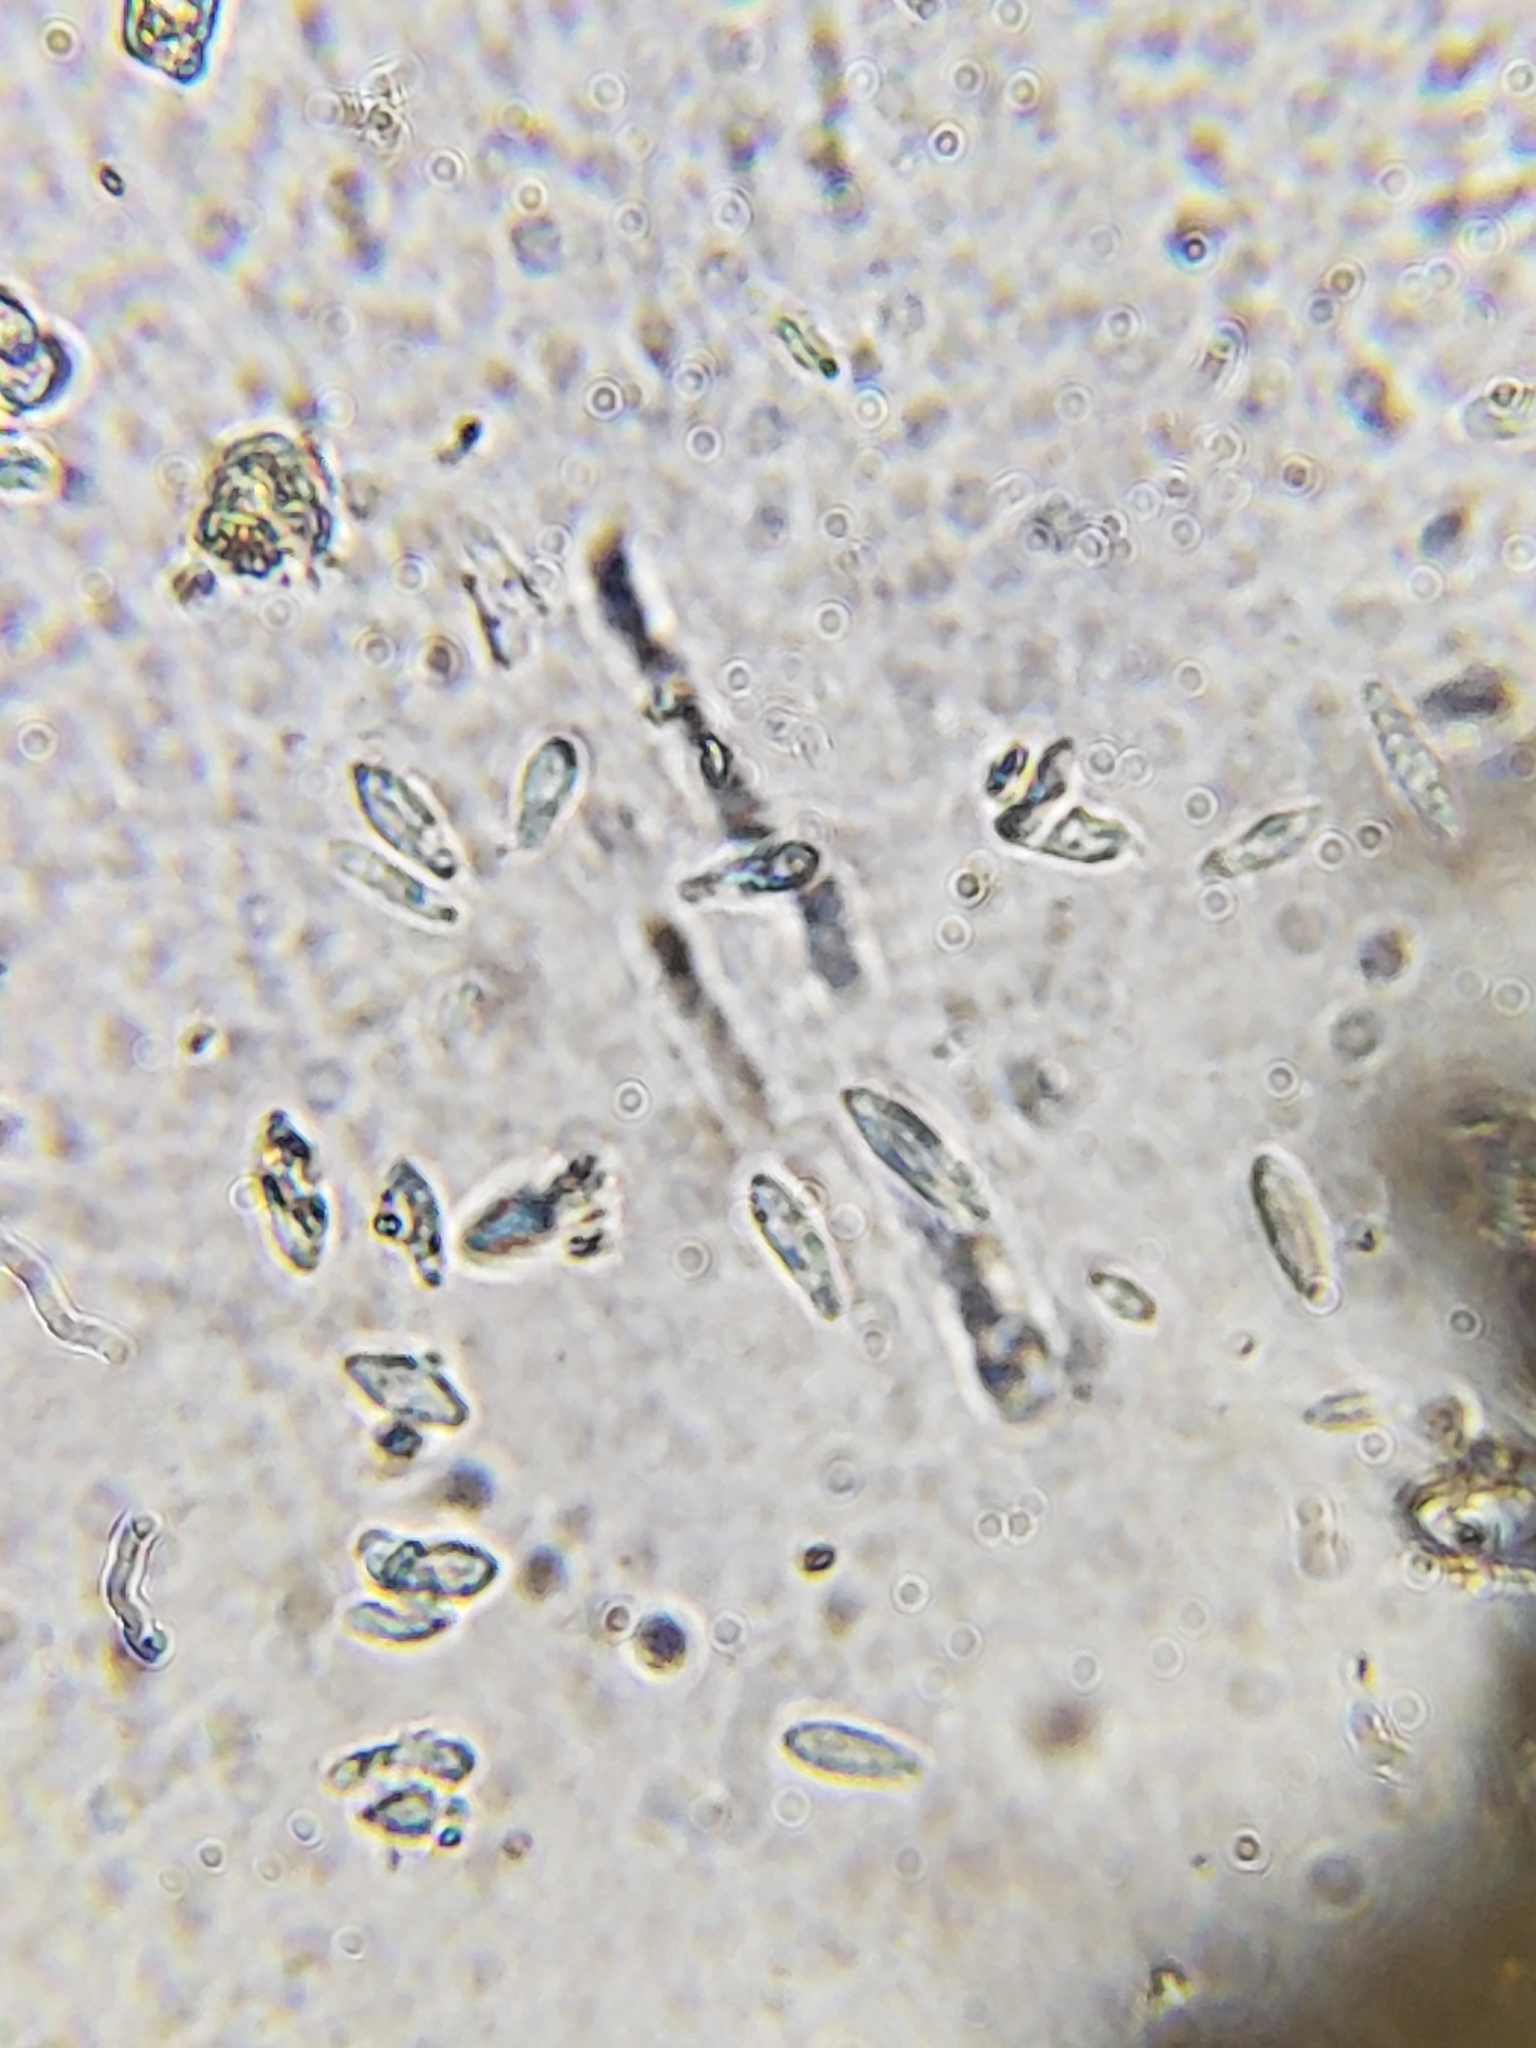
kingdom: Fungi
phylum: Ascomycota
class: Leotiomycetes
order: Helotiales
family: Lachnaceae
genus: Trichopeziza
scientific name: Trichopeziza subsulphurea
